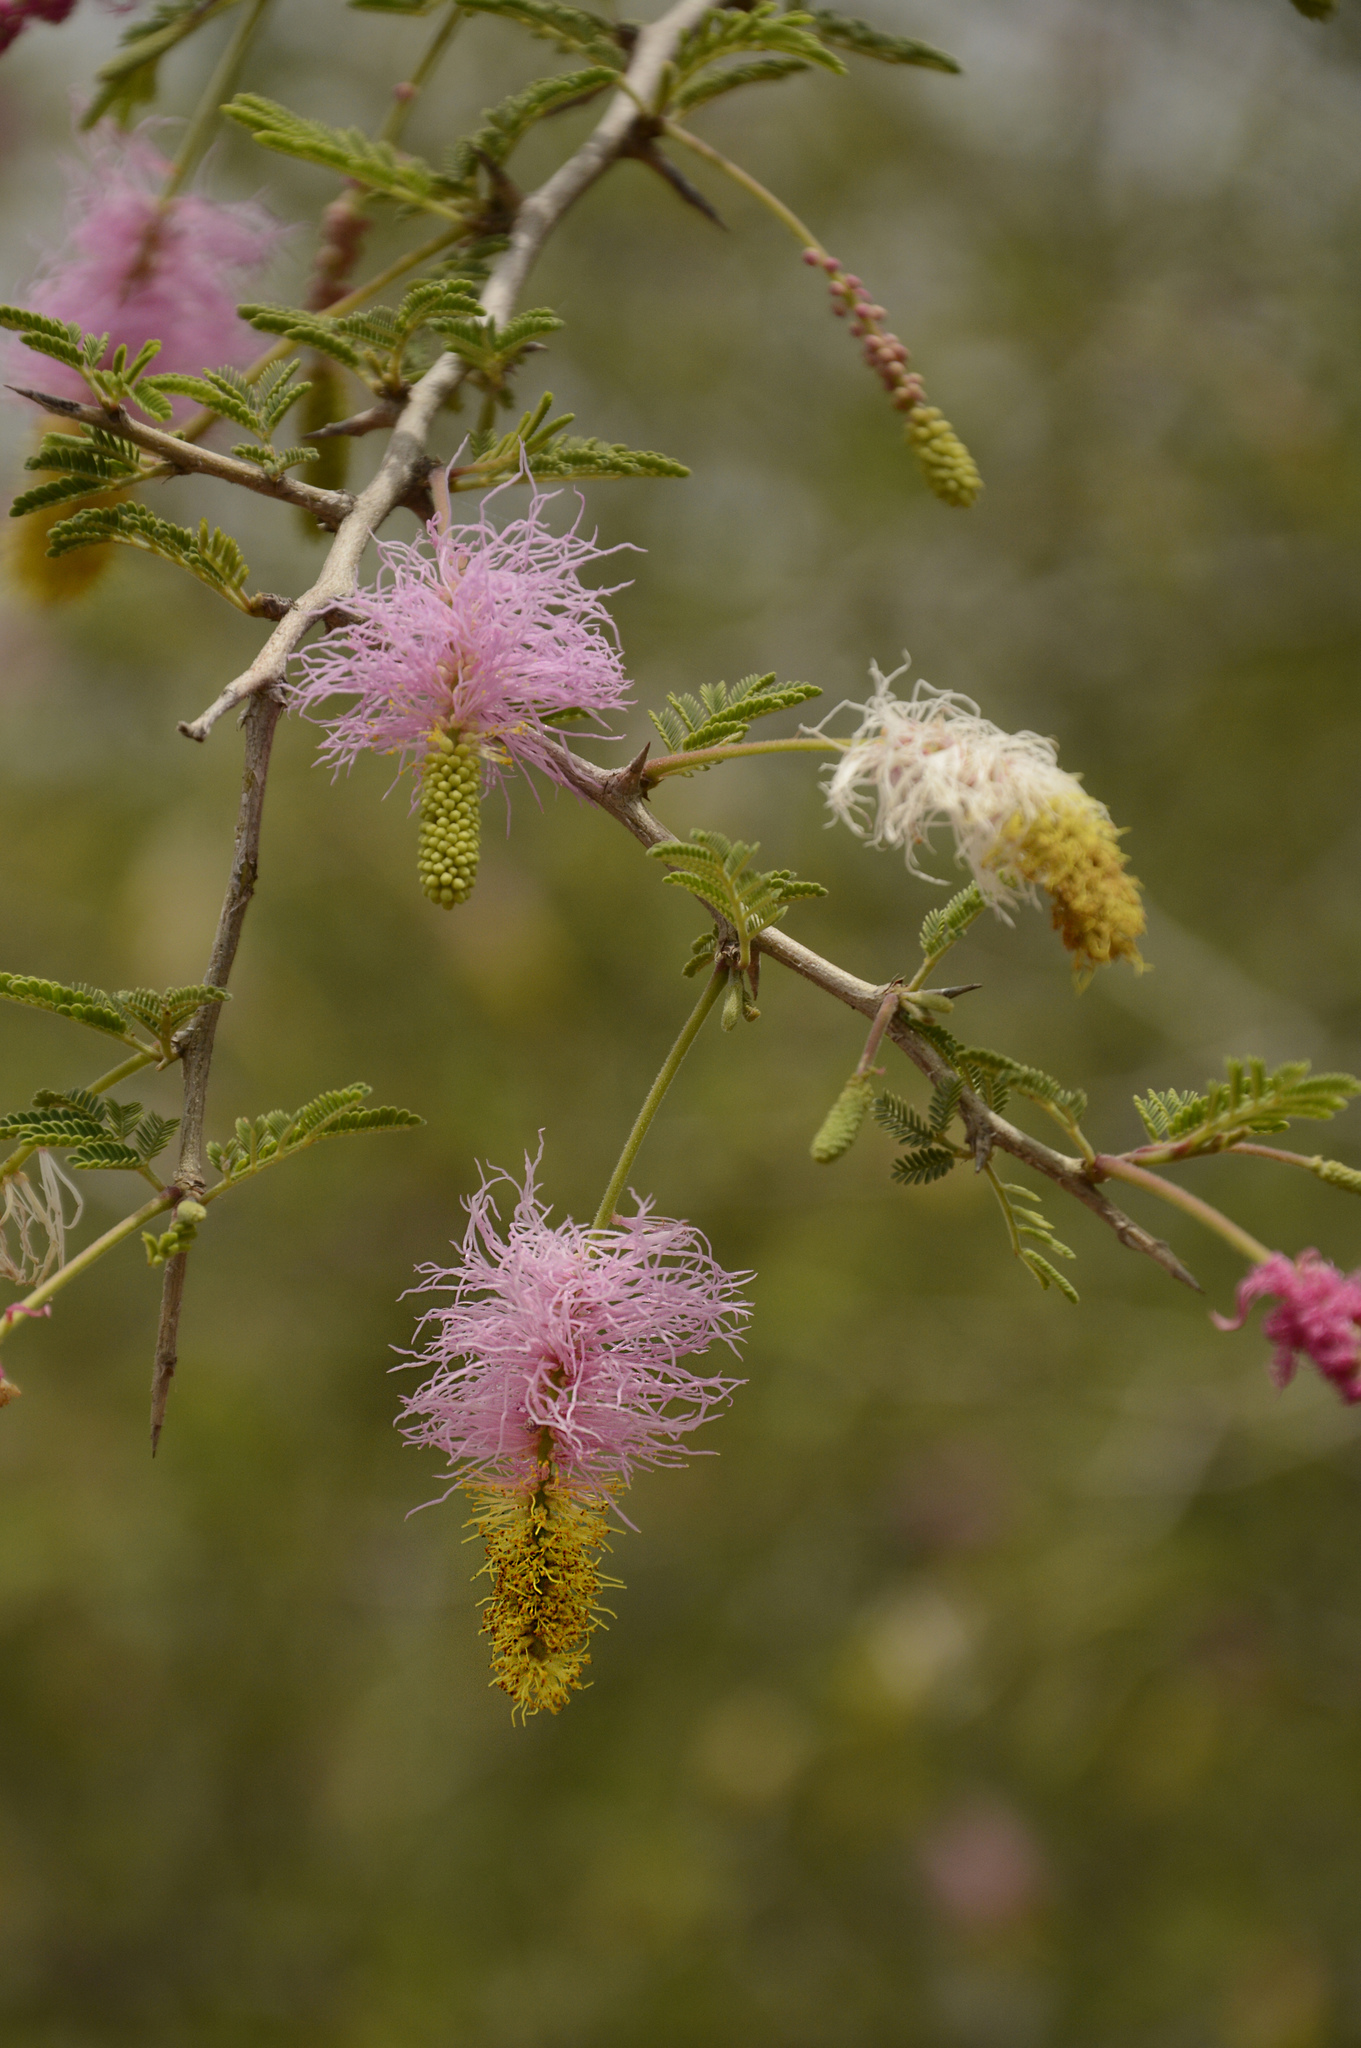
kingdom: Plantae
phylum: Tracheophyta
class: Magnoliopsida
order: Fabales
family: Fabaceae
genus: Dichrostachys
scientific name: Dichrostachys cinerea
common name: Sicklebush
